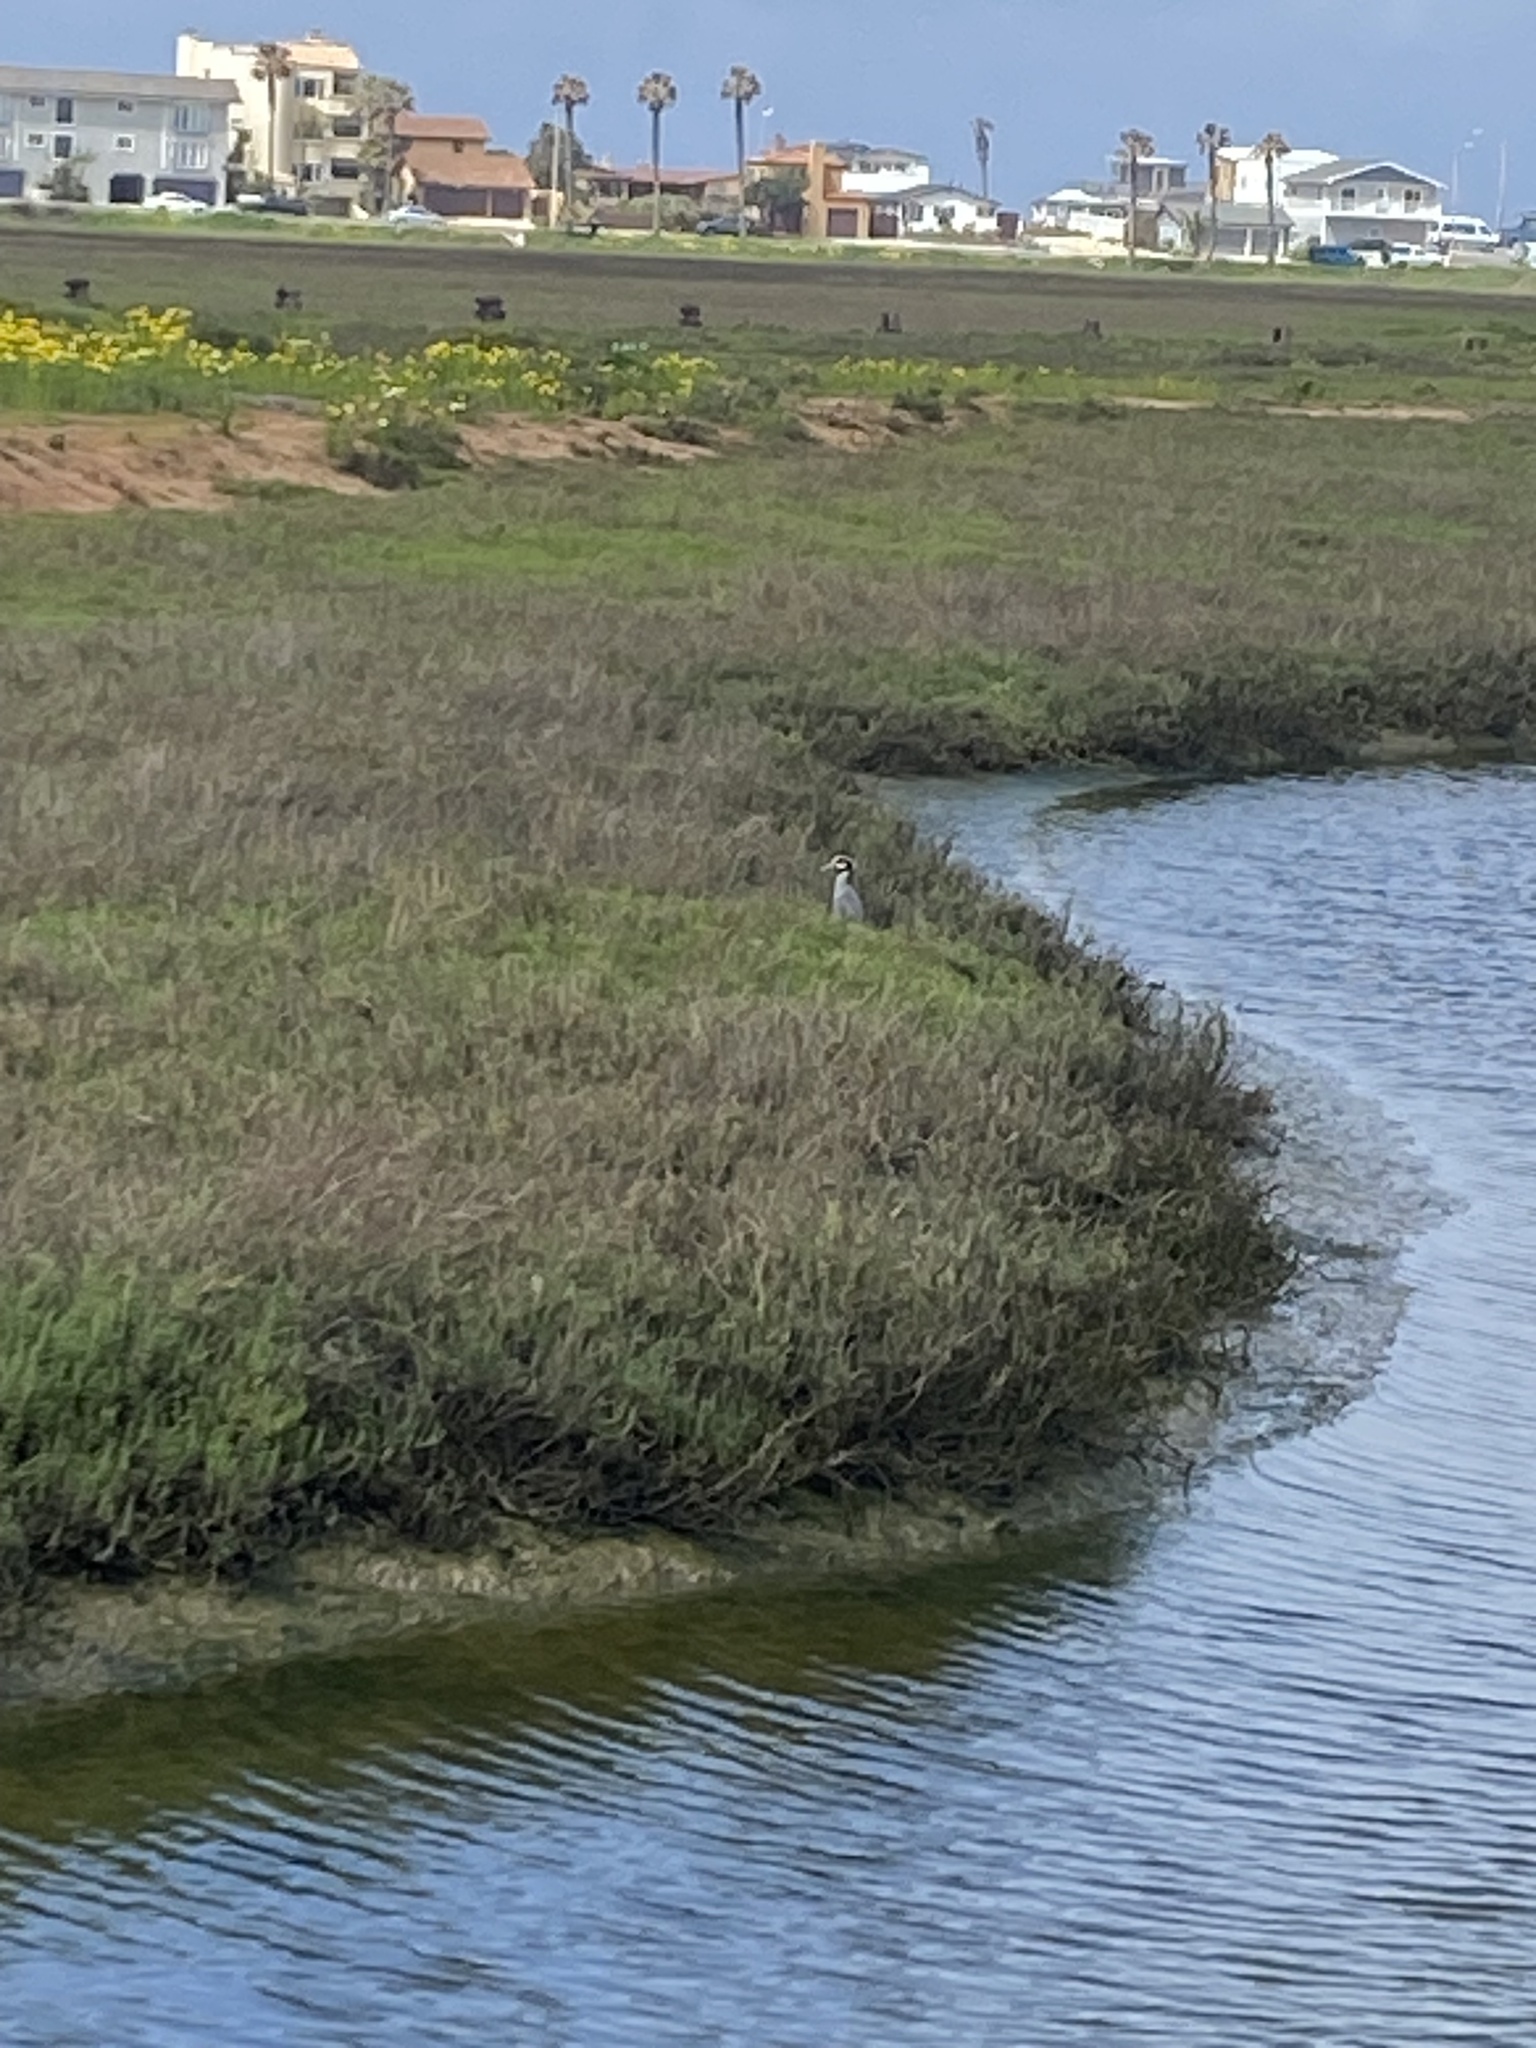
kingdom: Animalia
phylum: Chordata
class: Aves
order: Pelecaniformes
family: Ardeidae
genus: Nyctanassa
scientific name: Nyctanassa violacea
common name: Yellow-crowned night heron
